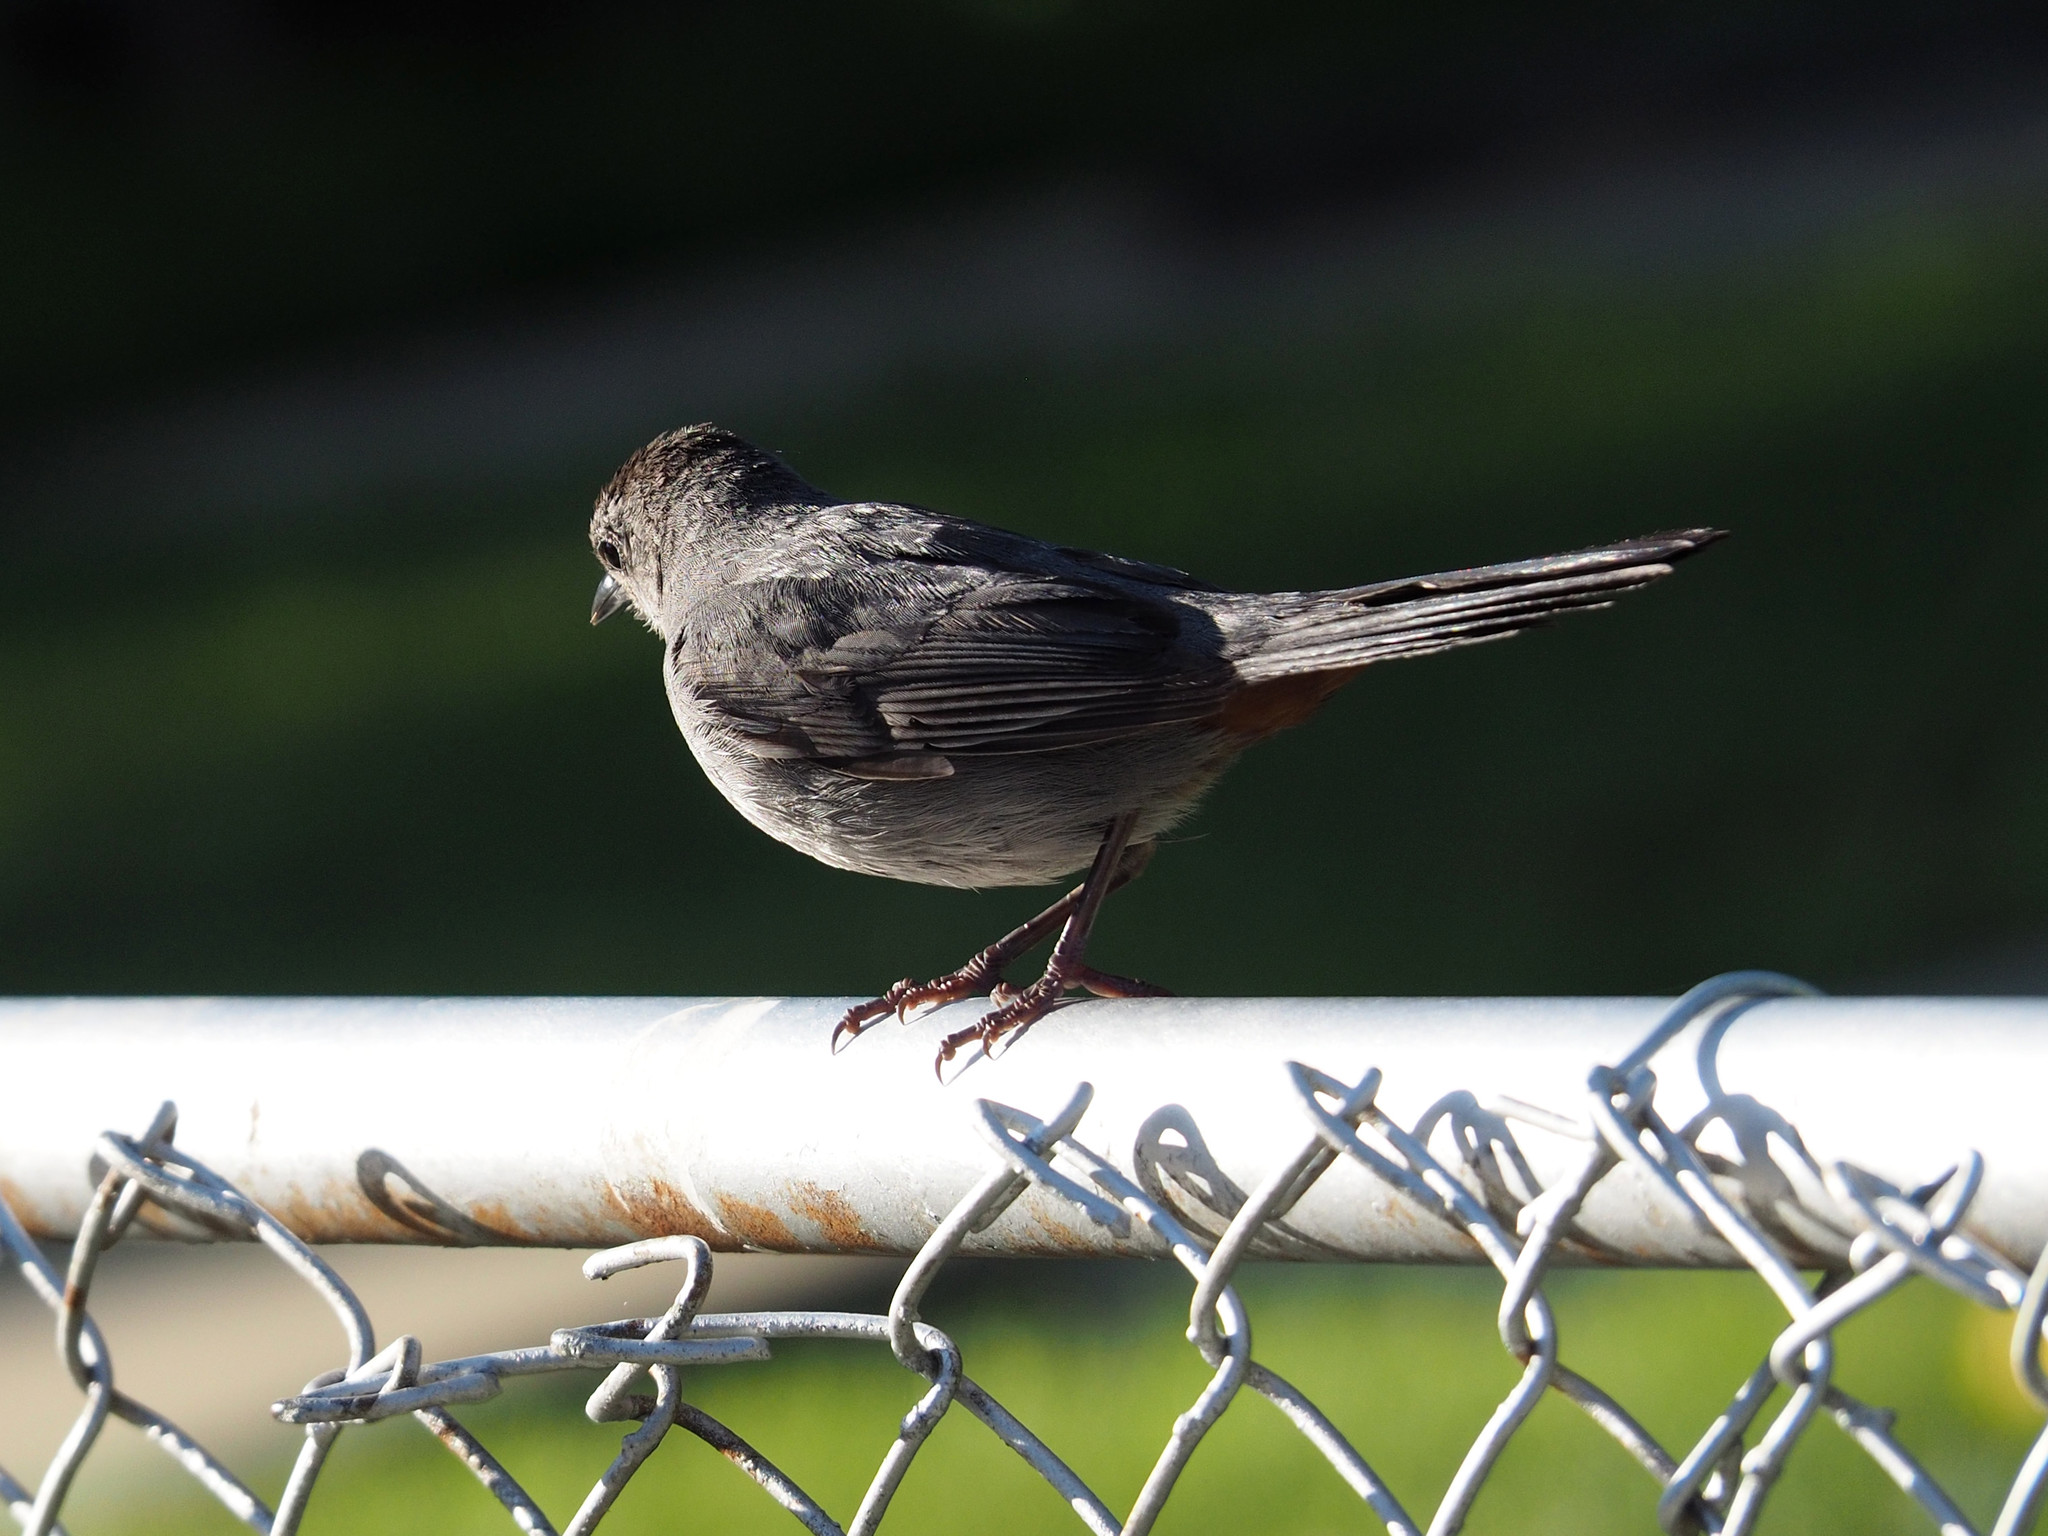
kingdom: Animalia
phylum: Chordata
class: Aves
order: Passeriformes
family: Mimidae
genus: Dumetella
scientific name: Dumetella carolinensis
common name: Gray catbird
